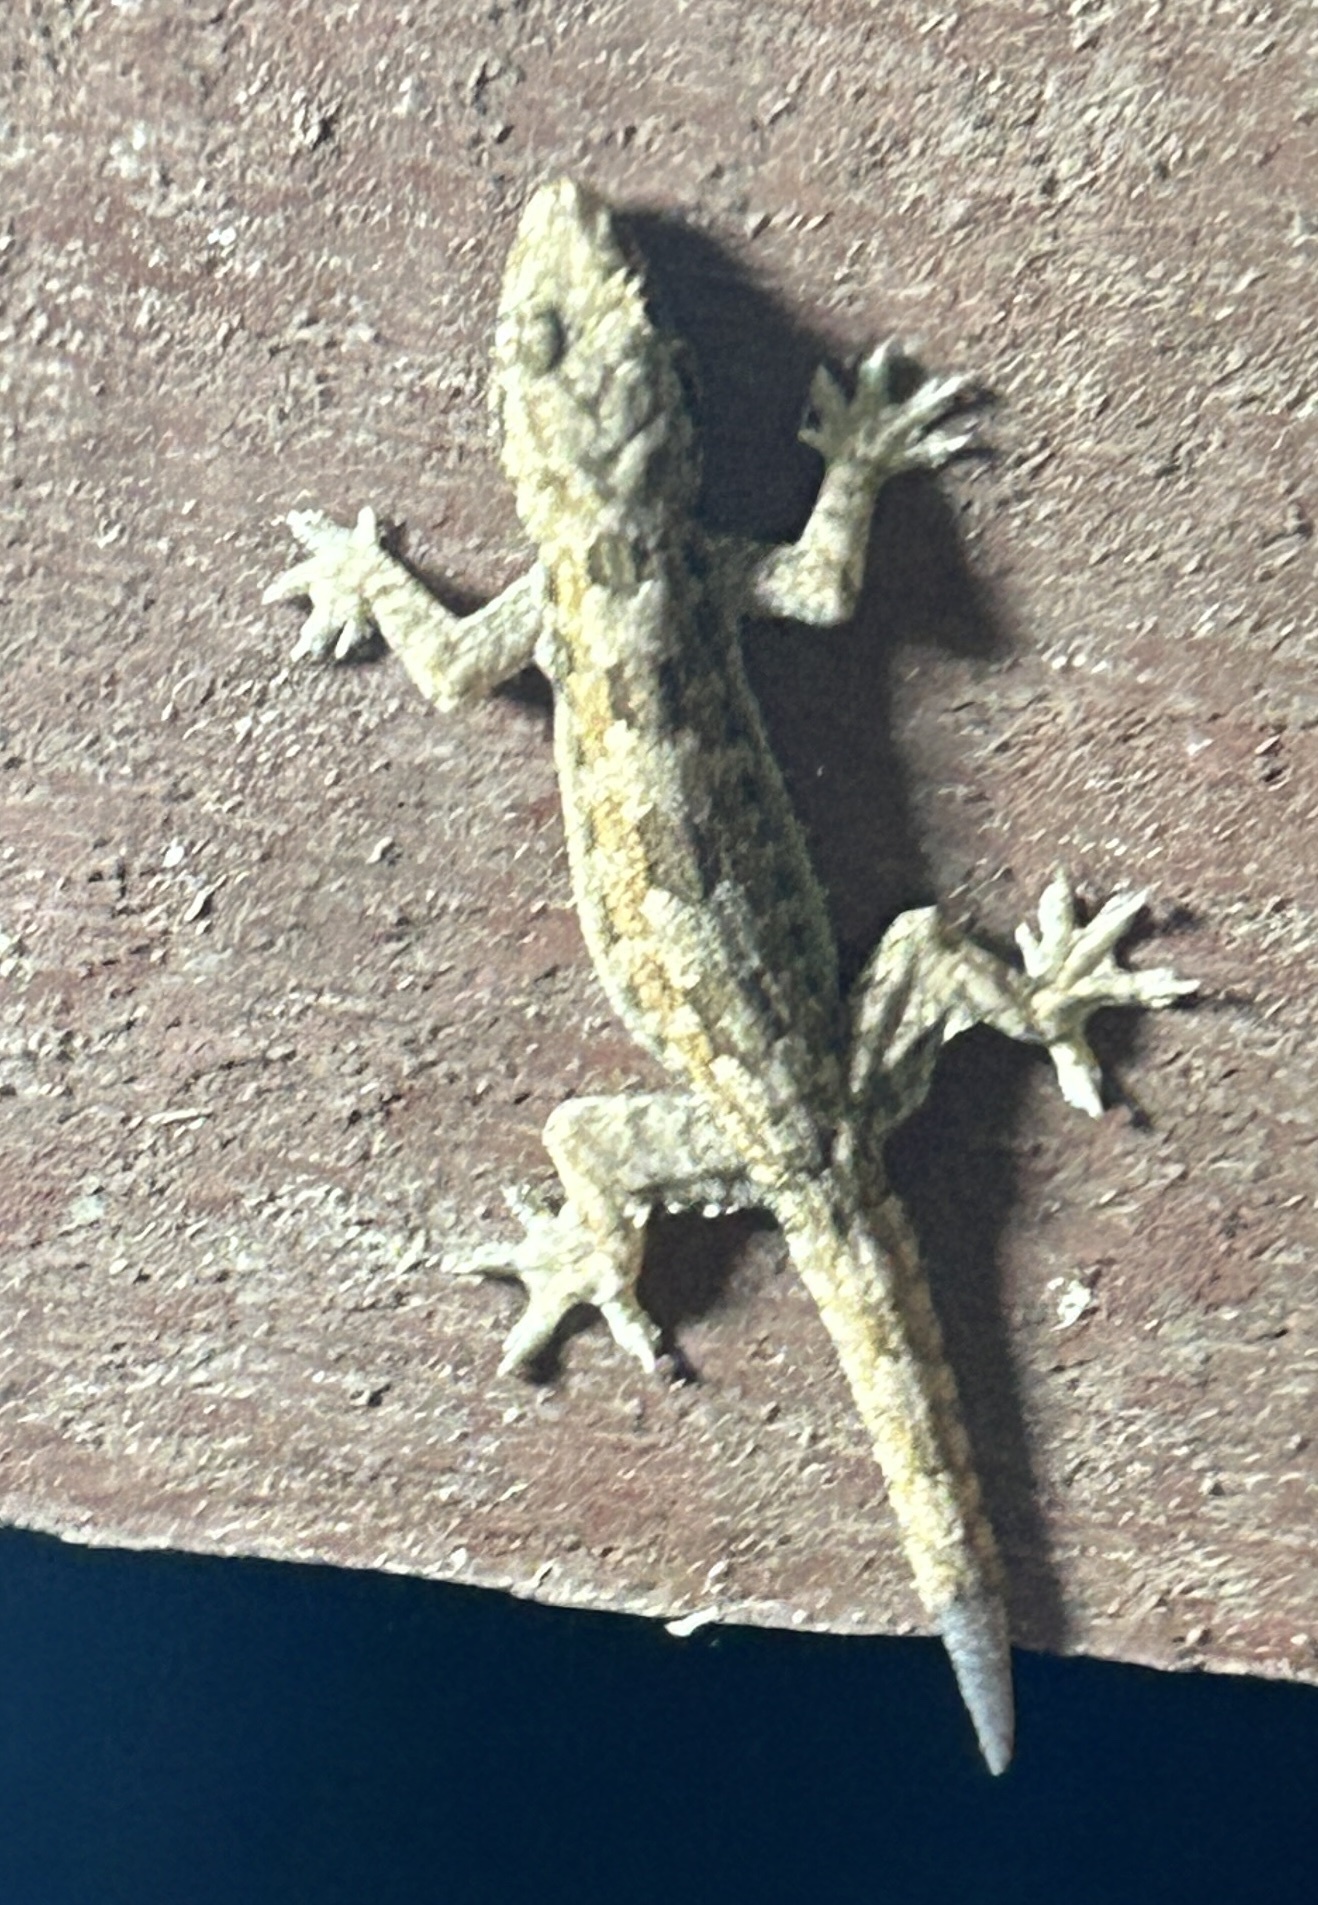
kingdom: Animalia
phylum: Chordata
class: Squamata
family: Gekkonidae
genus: Hemidactylus
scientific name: Hemidactylus platyurus
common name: Flat-tailed house gecko
